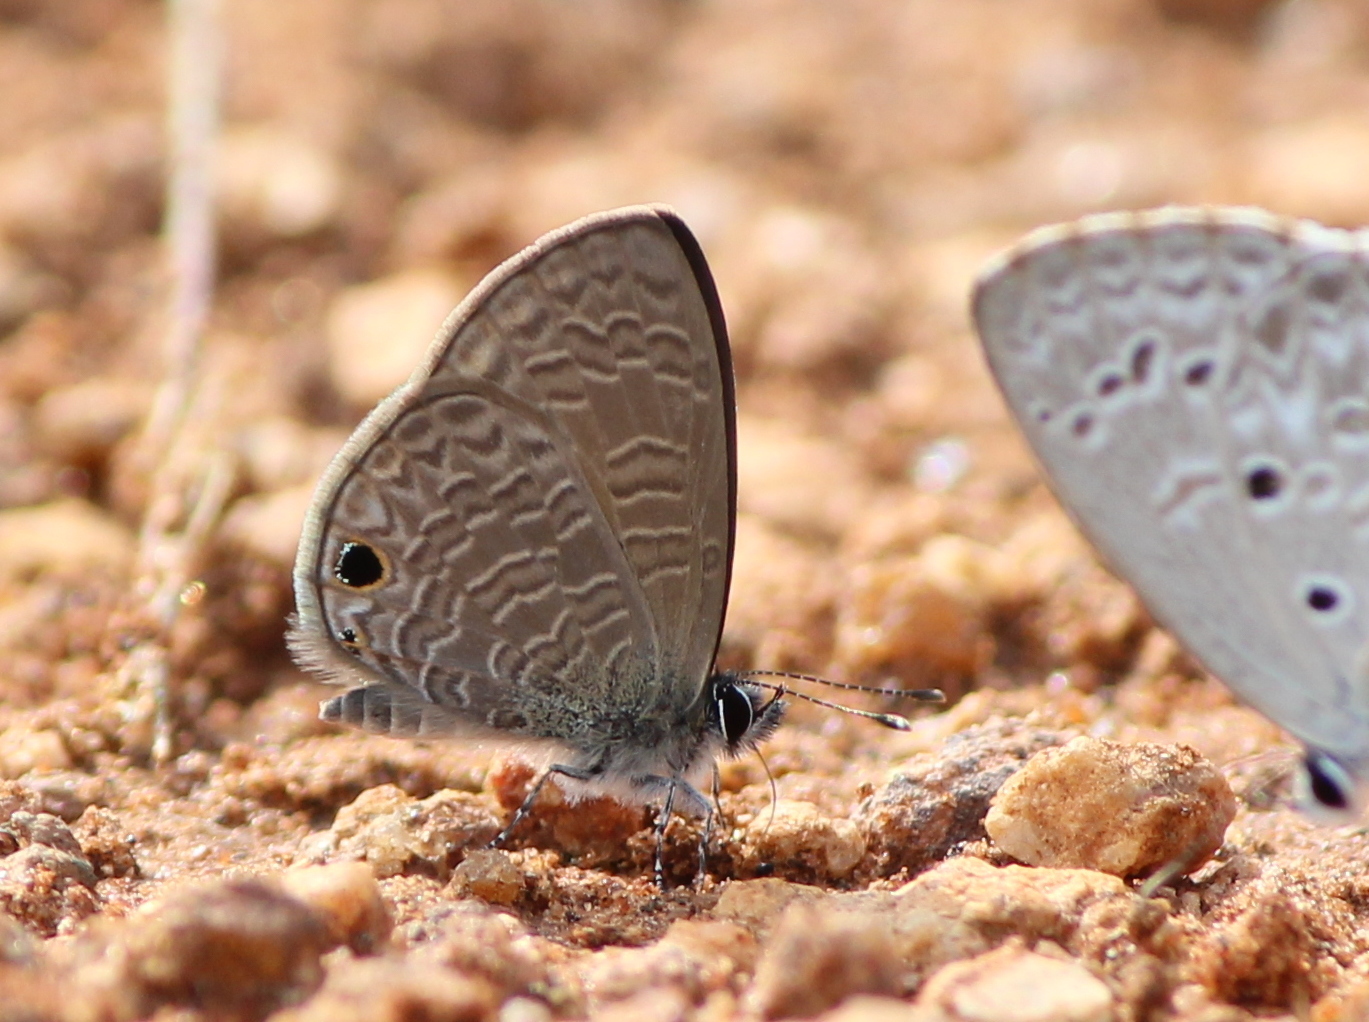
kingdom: Animalia
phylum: Arthropoda
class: Insecta
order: Lepidoptera
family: Lycaenidae
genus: Prosotas
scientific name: Prosotas dubiosa
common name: Tailless lineblue
